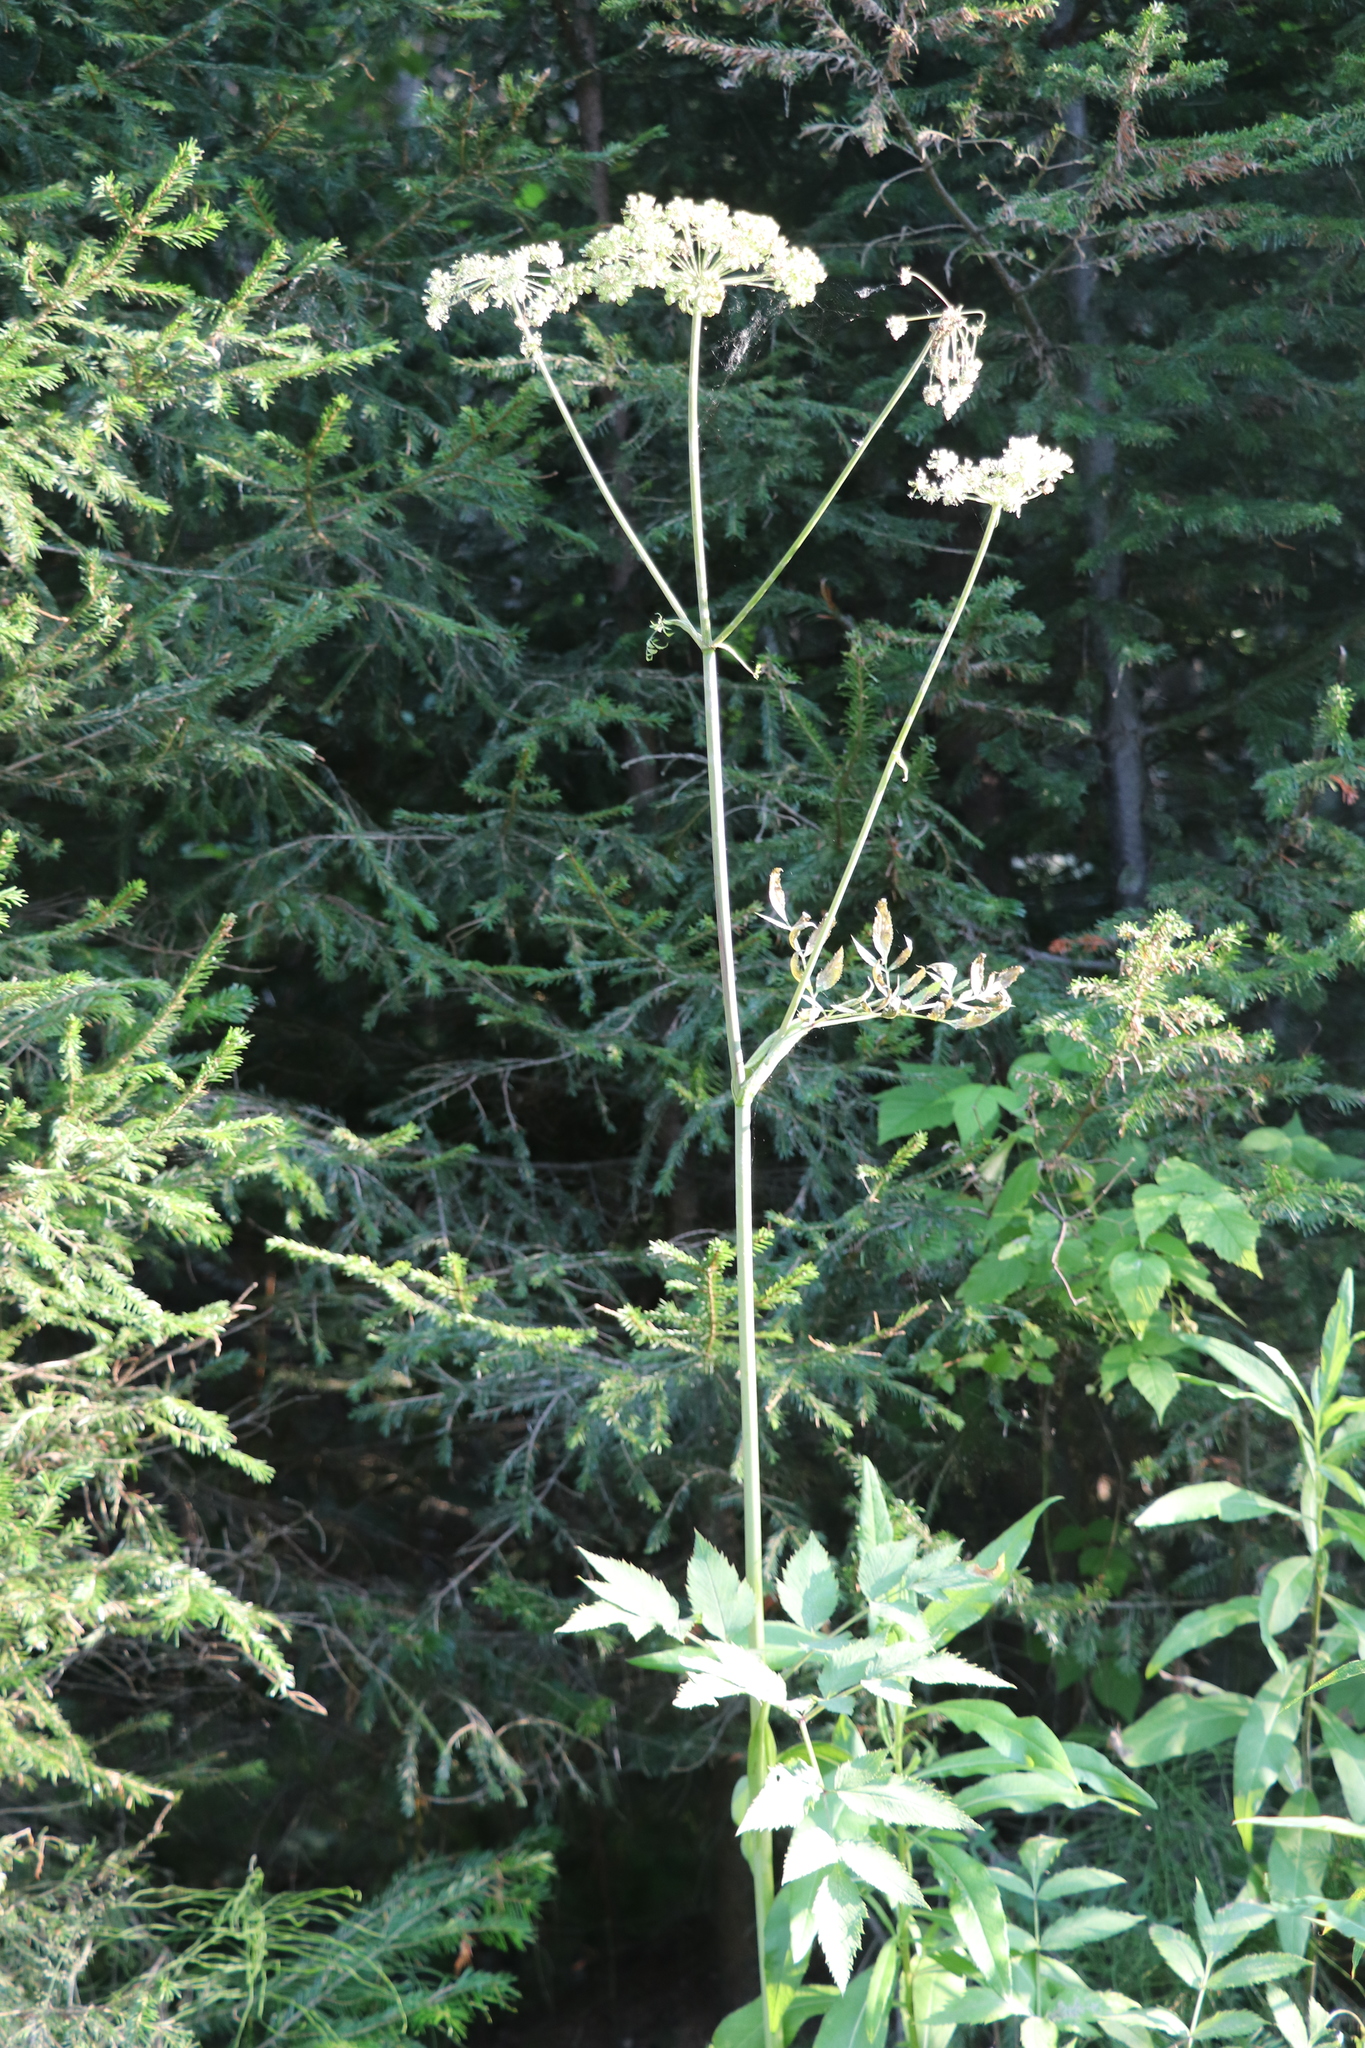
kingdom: Plantae
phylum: Tracheophyta
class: Magnoliopsida
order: Apiales
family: Apiaceae
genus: Angelica
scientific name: Angelica sylvestris
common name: Wild angelica
